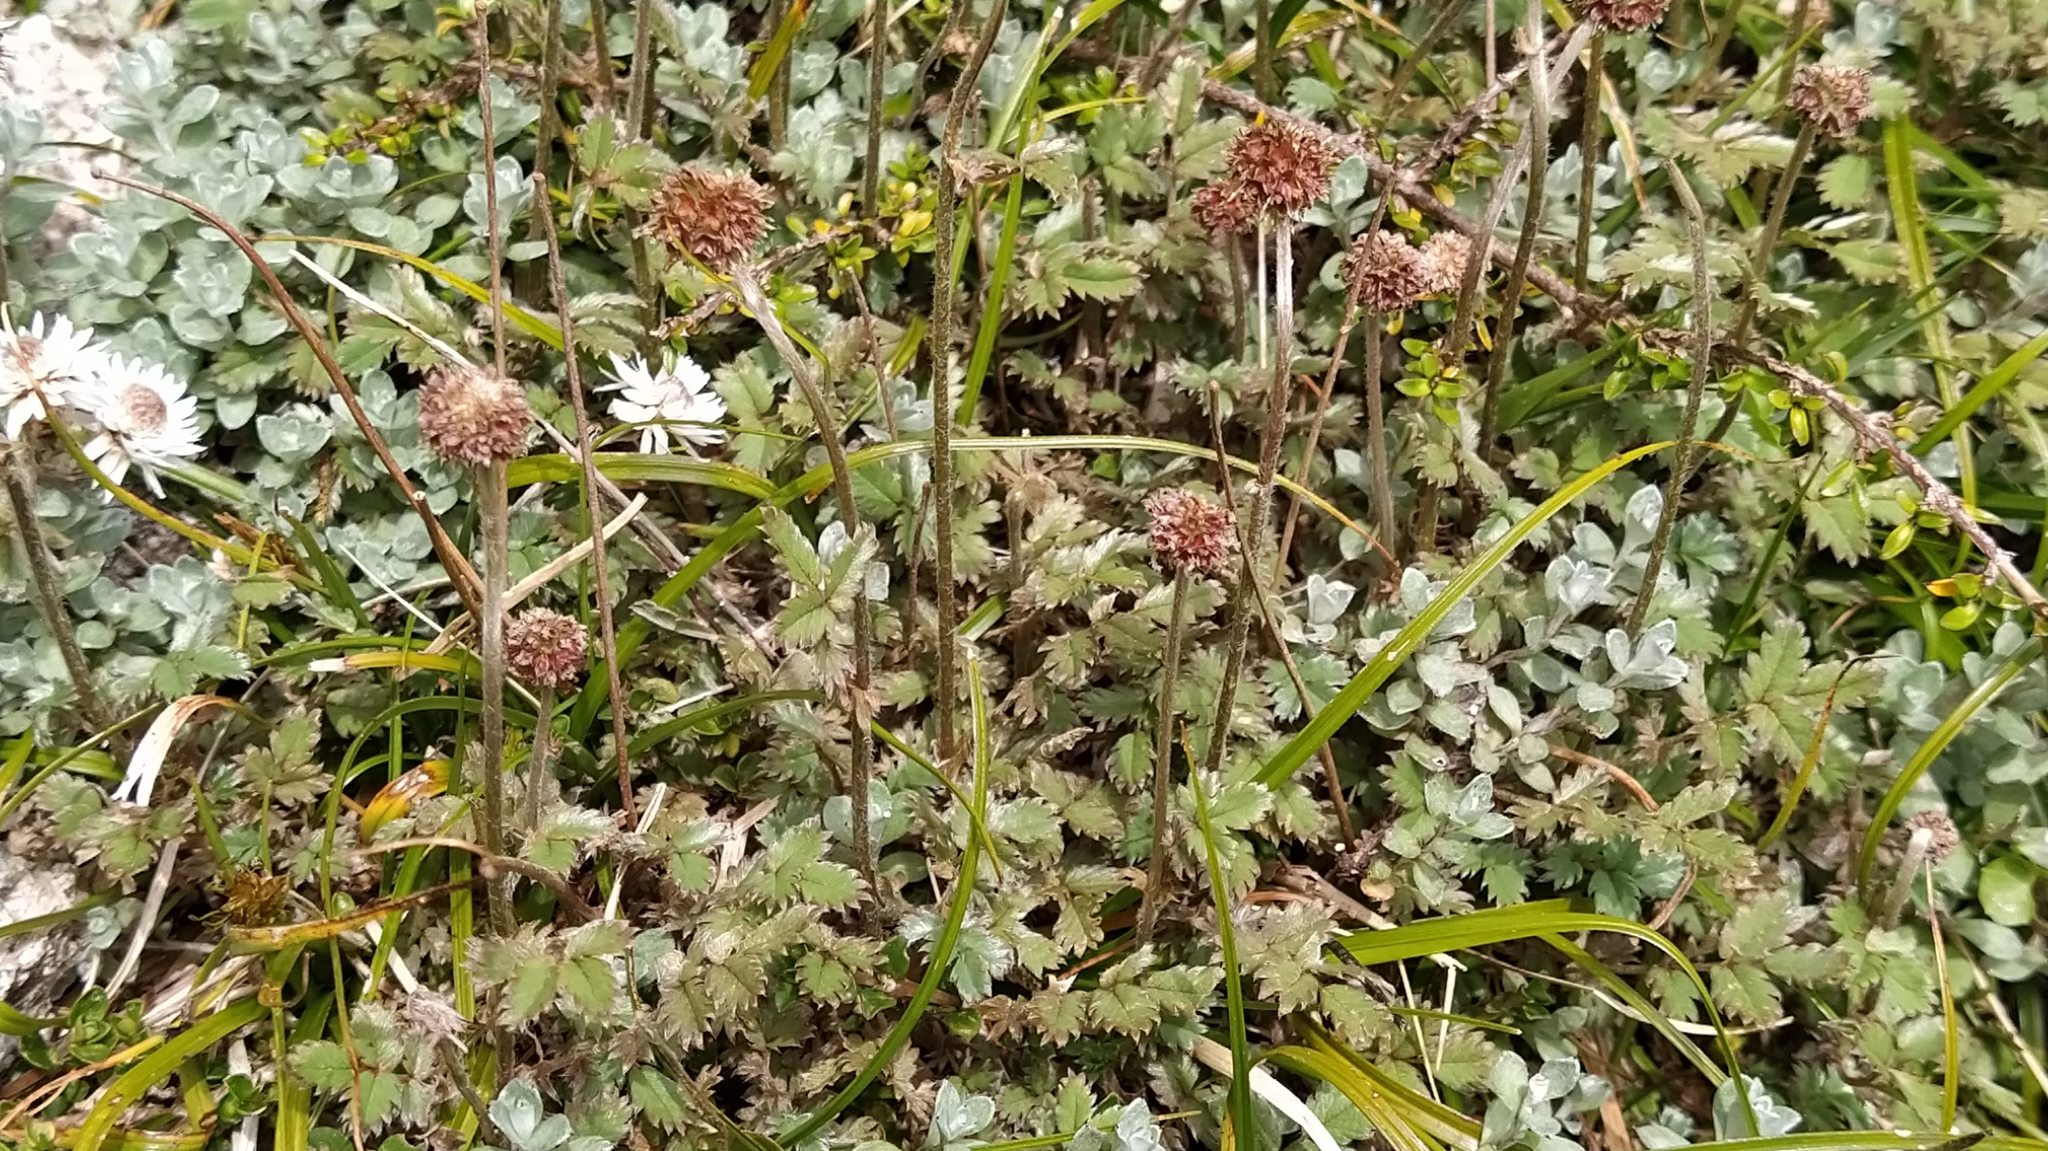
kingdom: Plantae
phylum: Tracheophyta
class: Magnoliopsida
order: Rosales
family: Rosaceae
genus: Acaena
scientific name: Acaena profundeincisa
